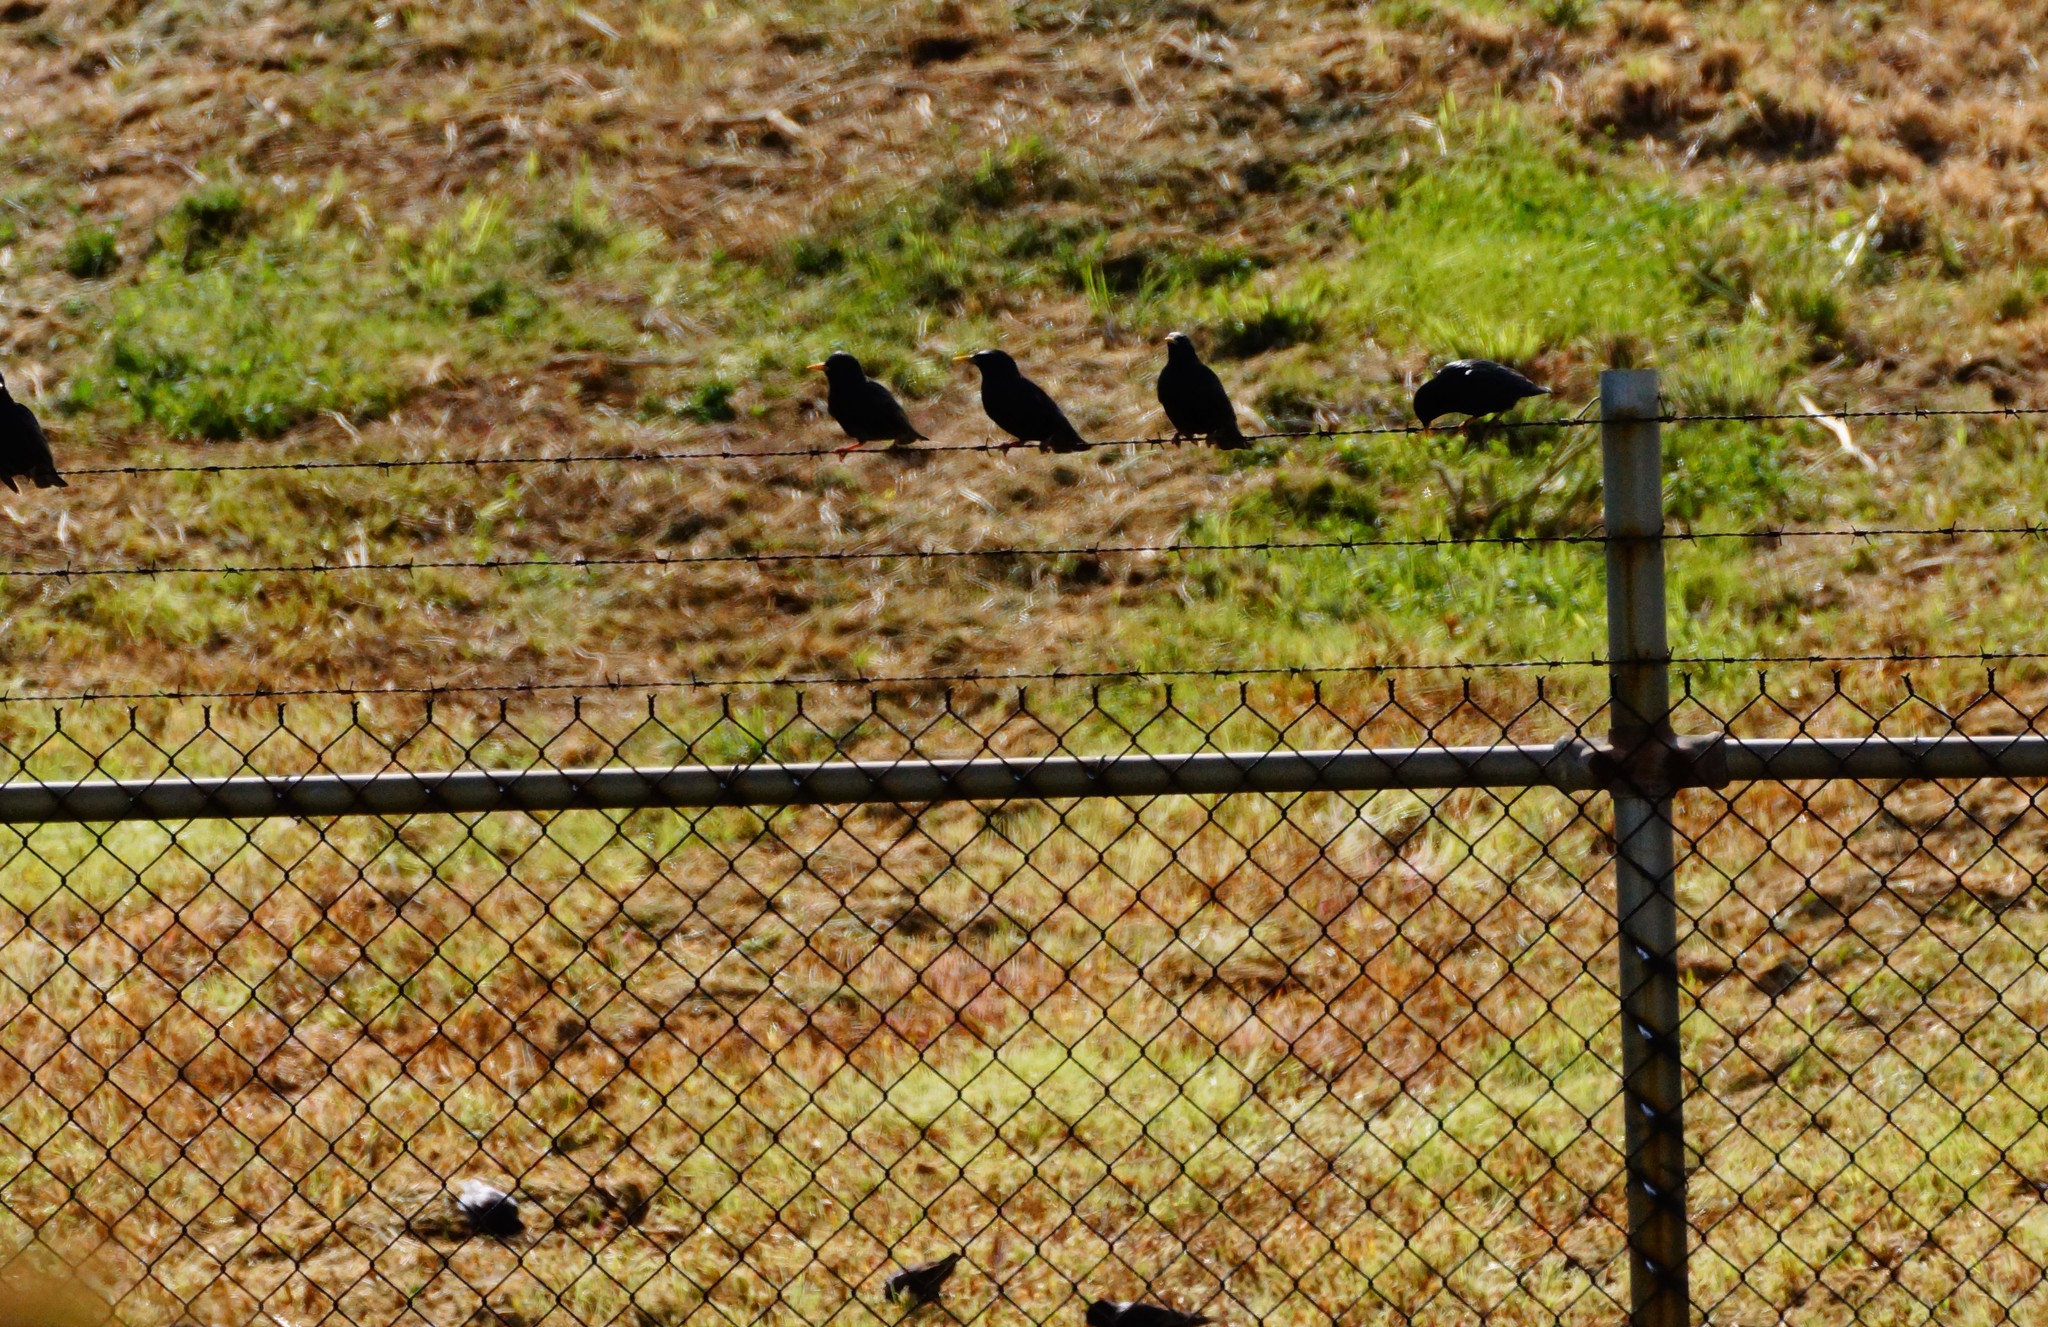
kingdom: Animalia
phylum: Chordata
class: Aves
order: Passeriformes
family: Sturnidae
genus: Sturnus
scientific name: Sturnus vulgaris
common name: Common starling
